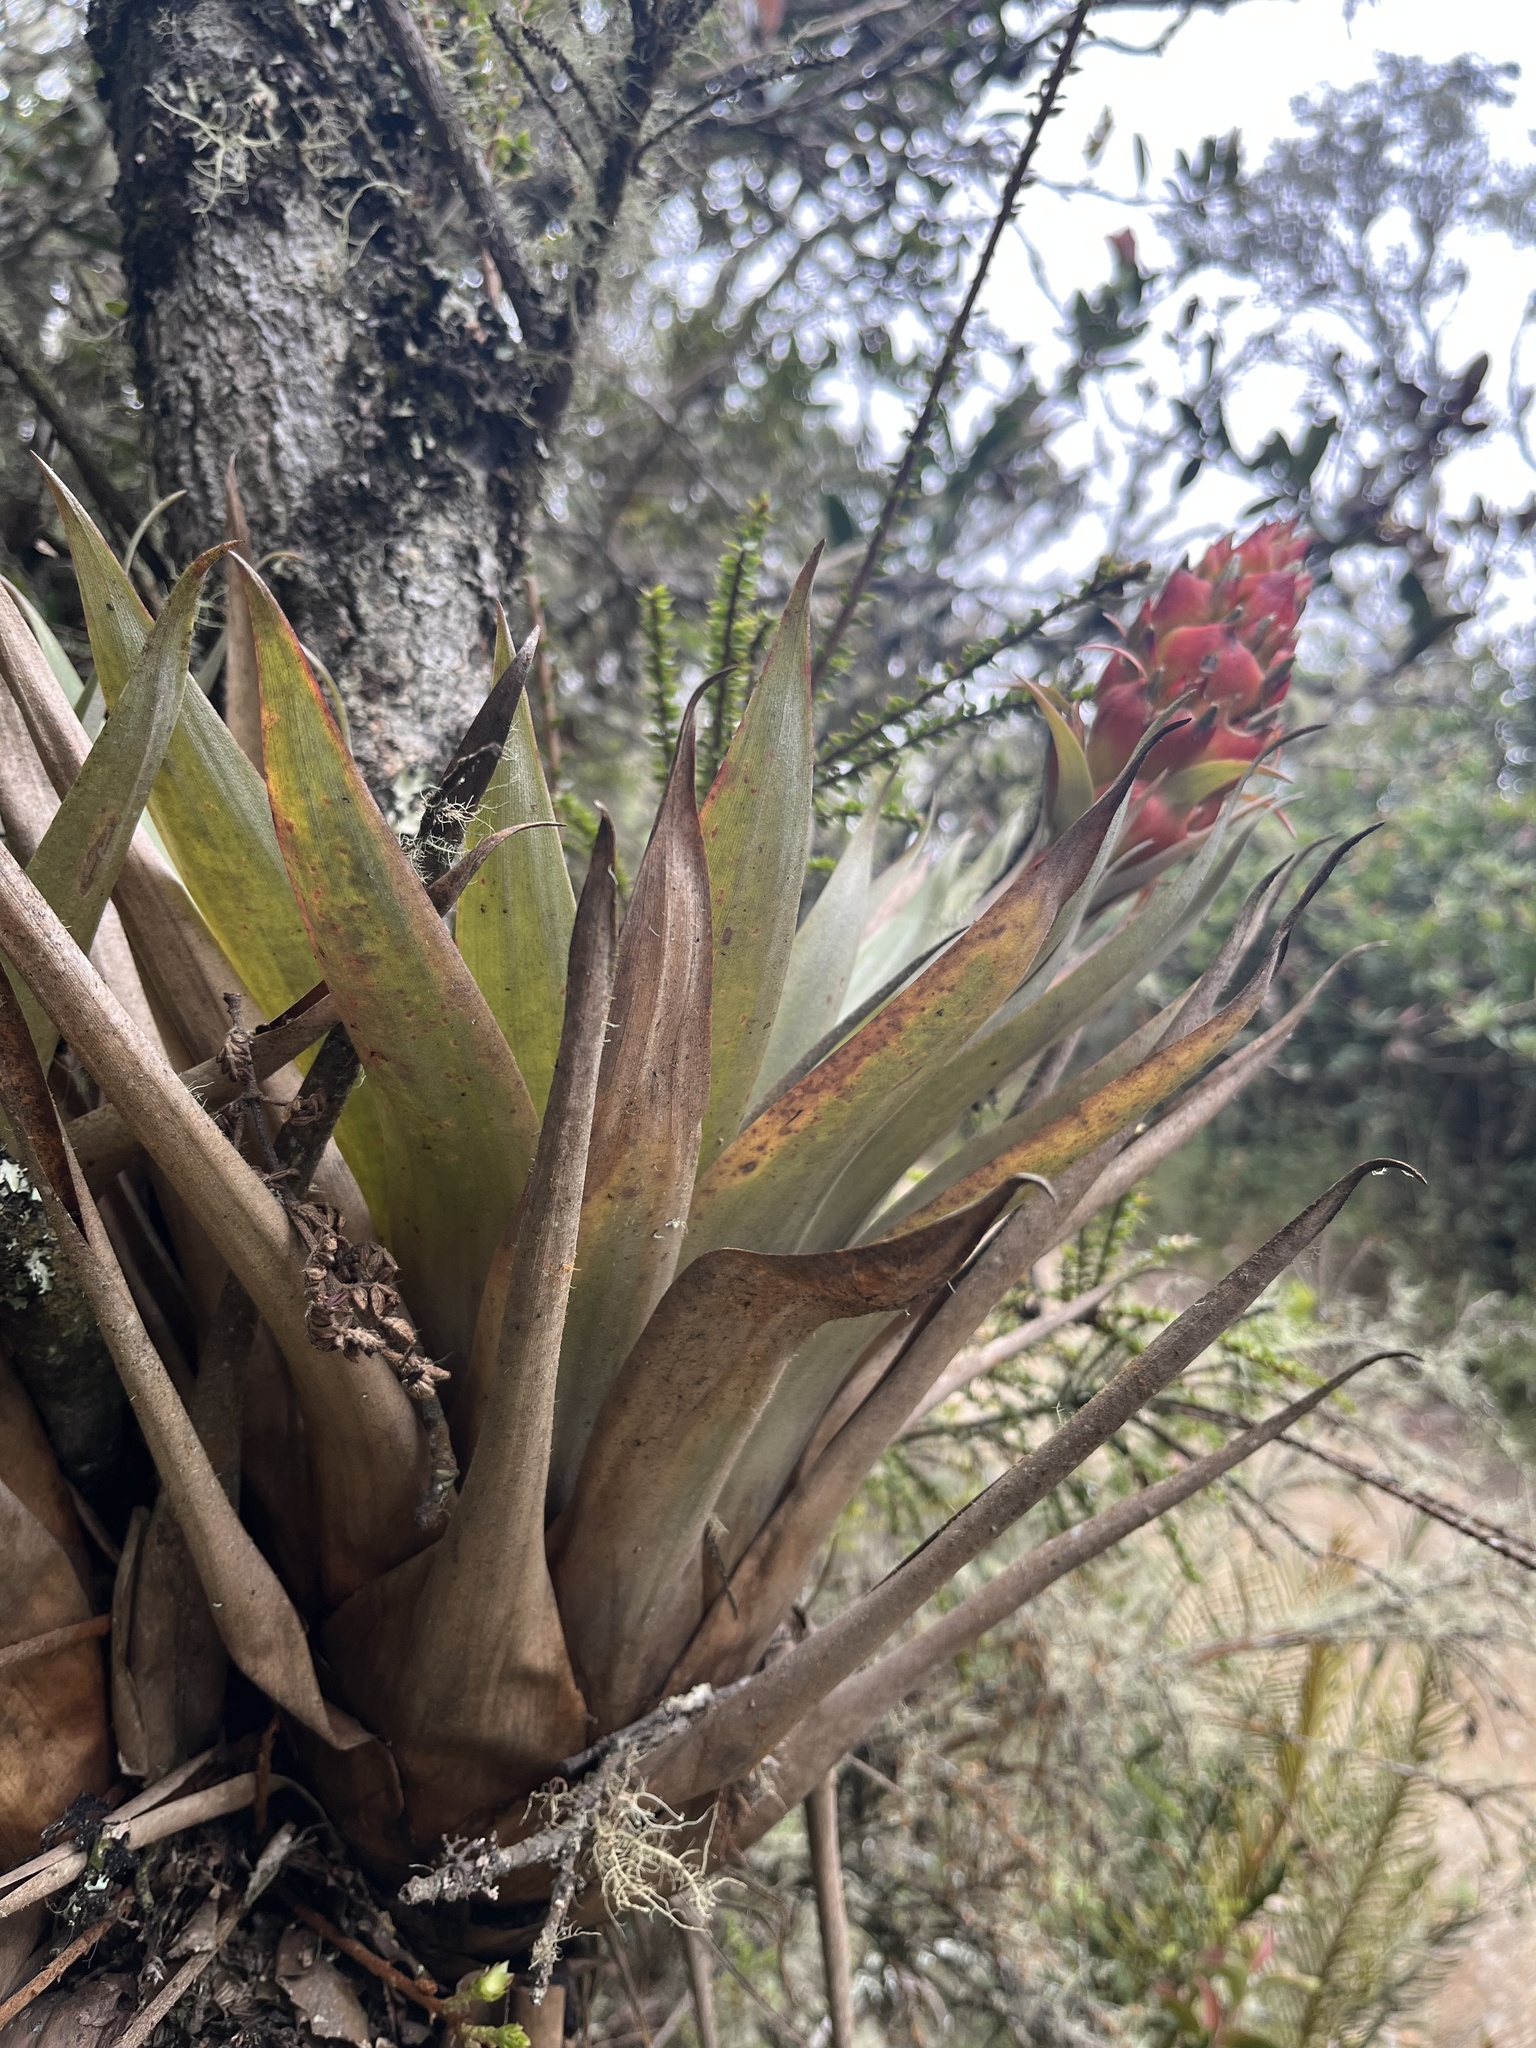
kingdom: Plantae
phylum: Tracheophyta
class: Liliopsida
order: Poales
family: Bromeliaceae
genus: Tillandsia
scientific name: Tillandsia turneri
